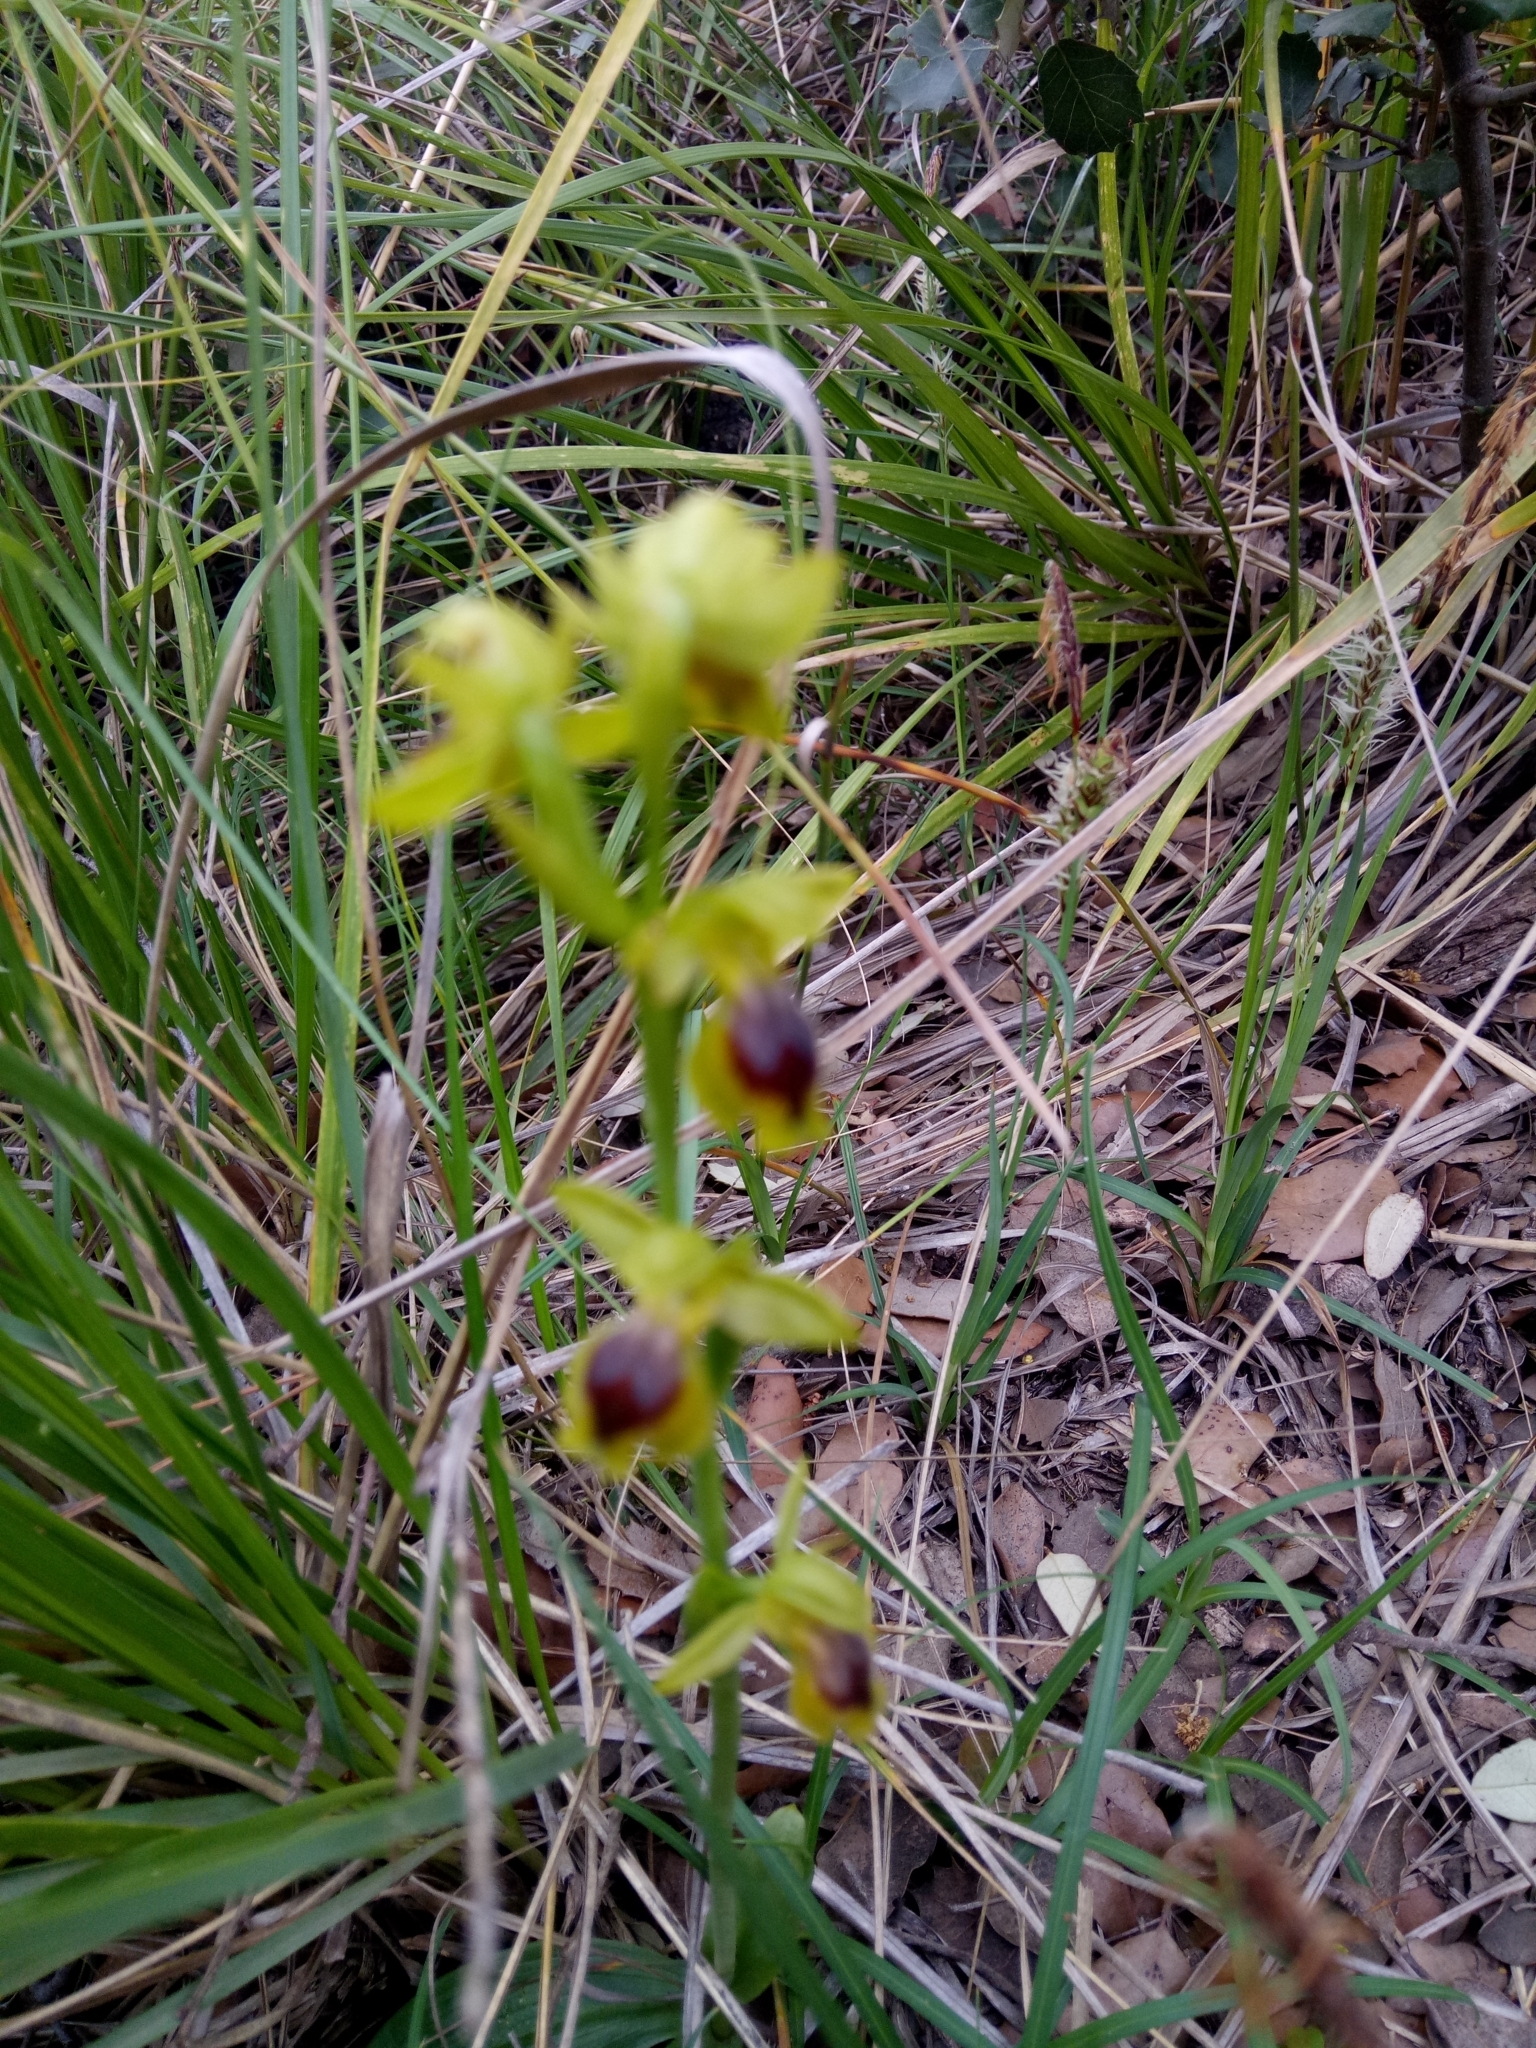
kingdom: Plantae
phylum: Tracheophyta
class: Liliopsida
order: Asparagales
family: Orchidaceae
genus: Ophrys
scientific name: Ophrys battandieri
